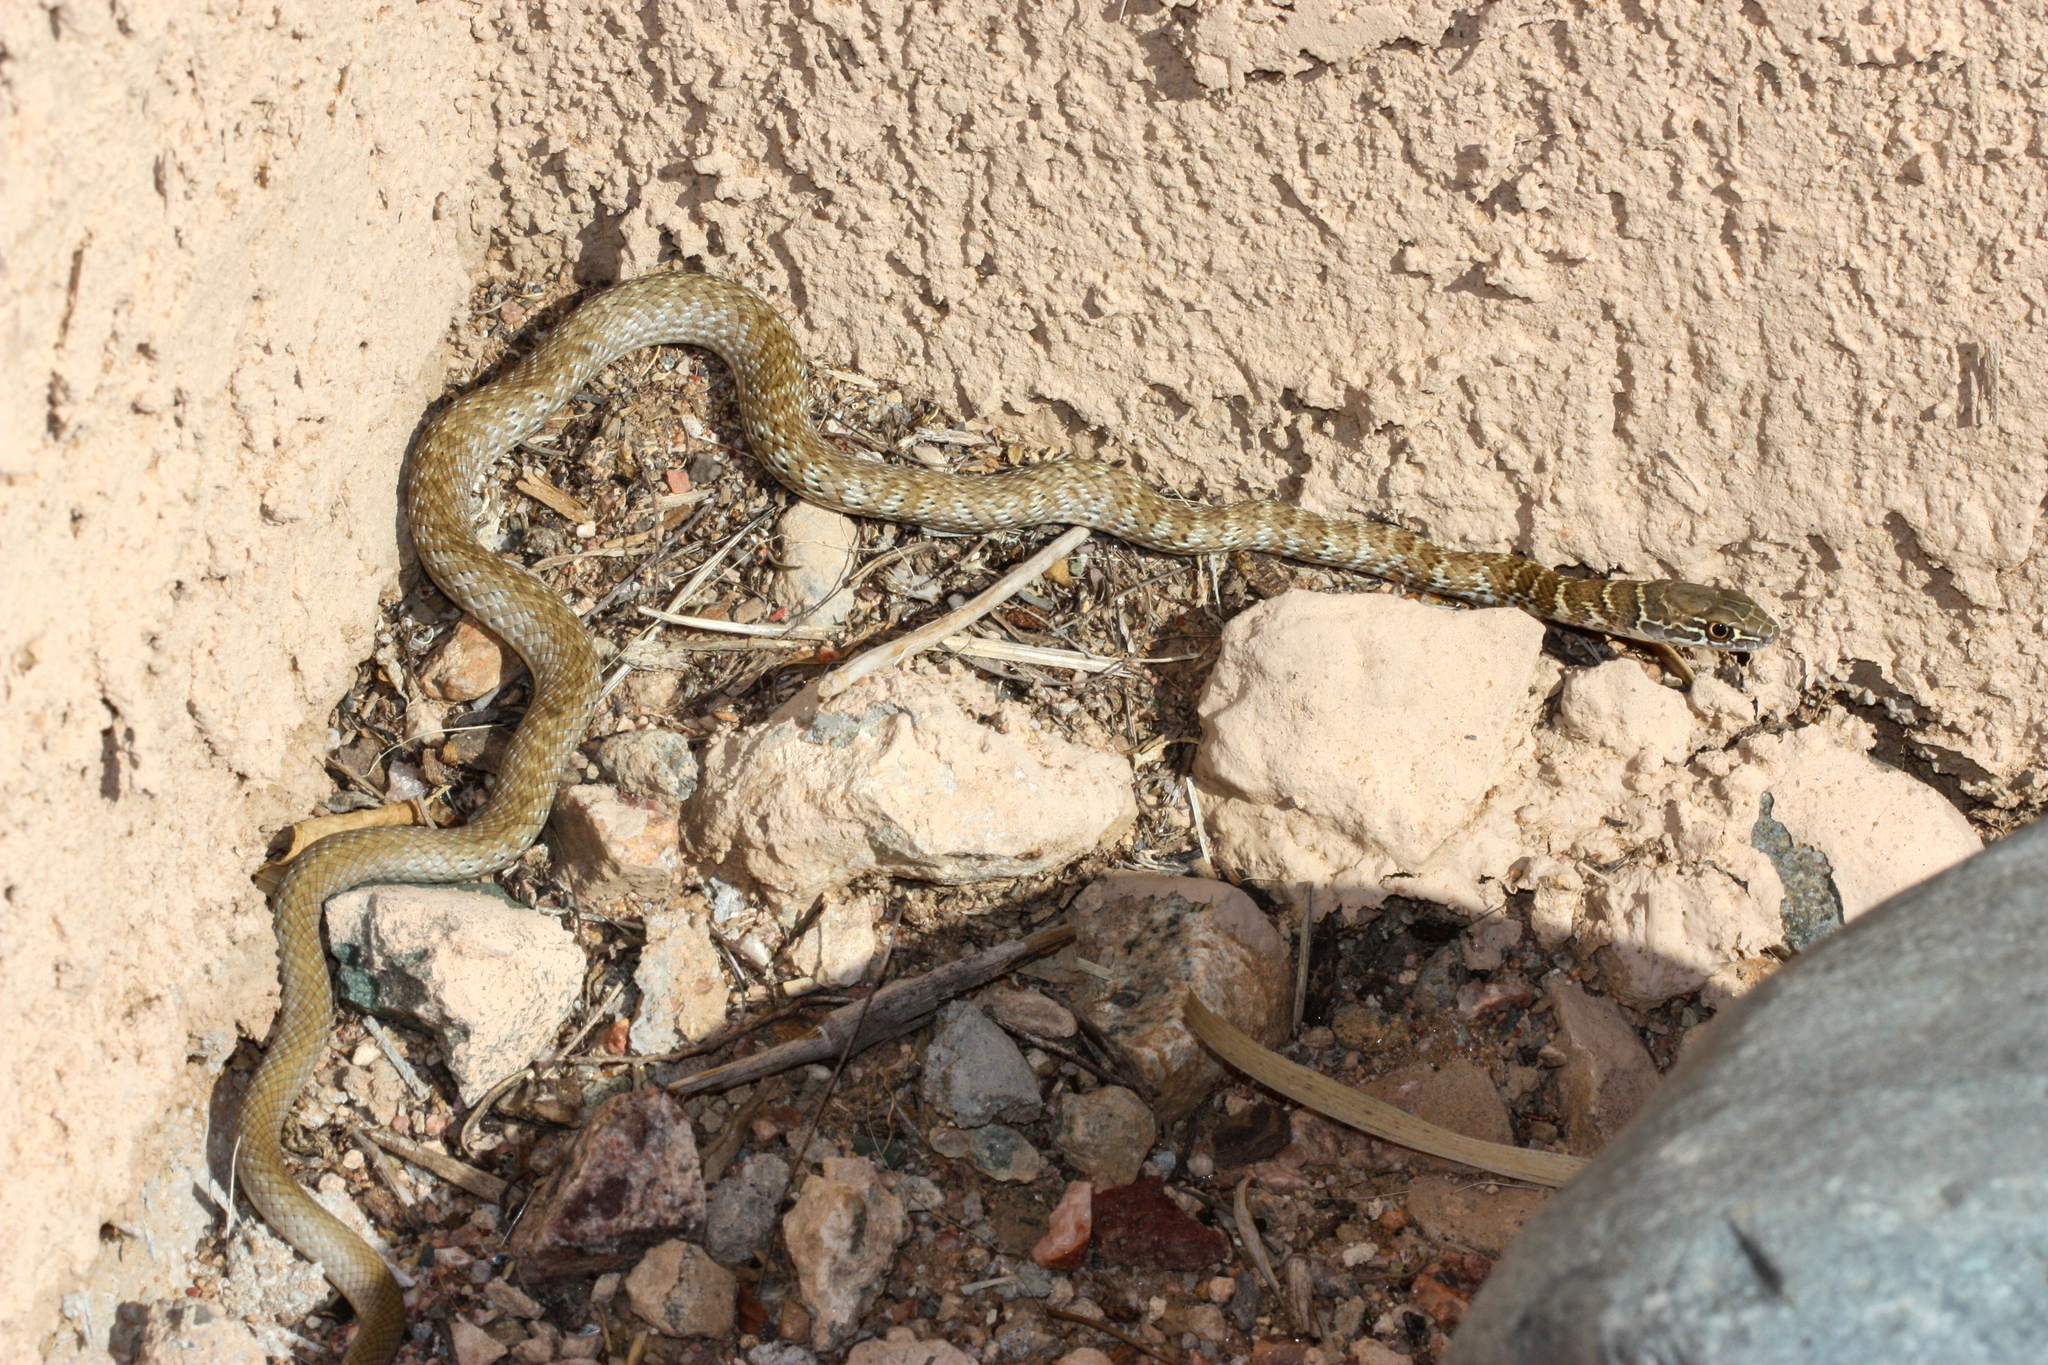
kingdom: Animalia
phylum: Chordata
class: Squamata
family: Colubridae
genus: Masticophis
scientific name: Masticophis flagellum
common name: Coachwhip
